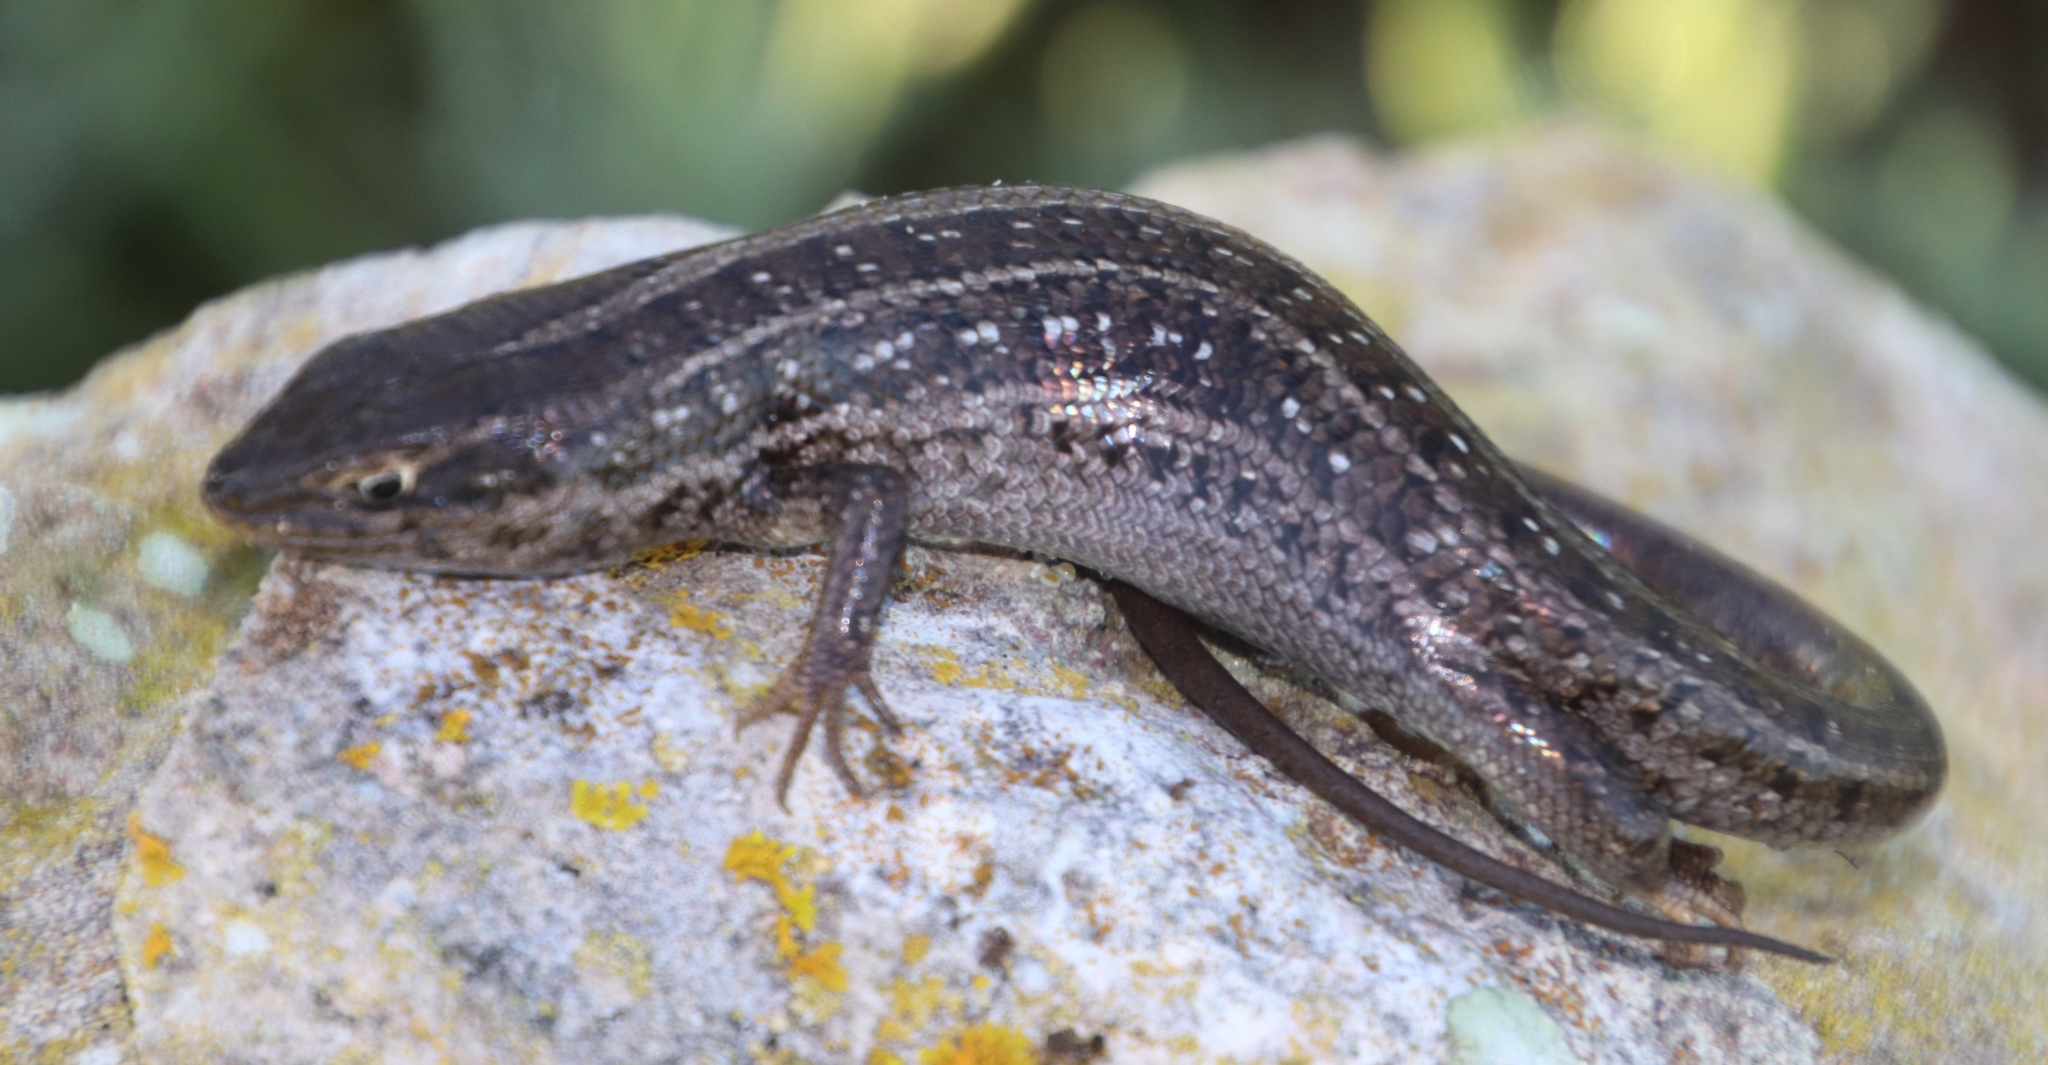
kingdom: Animalia
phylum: Chordata
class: Squamata
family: Scincidae
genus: Trachylepis
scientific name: Trachylepis capensis
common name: Cape skink
